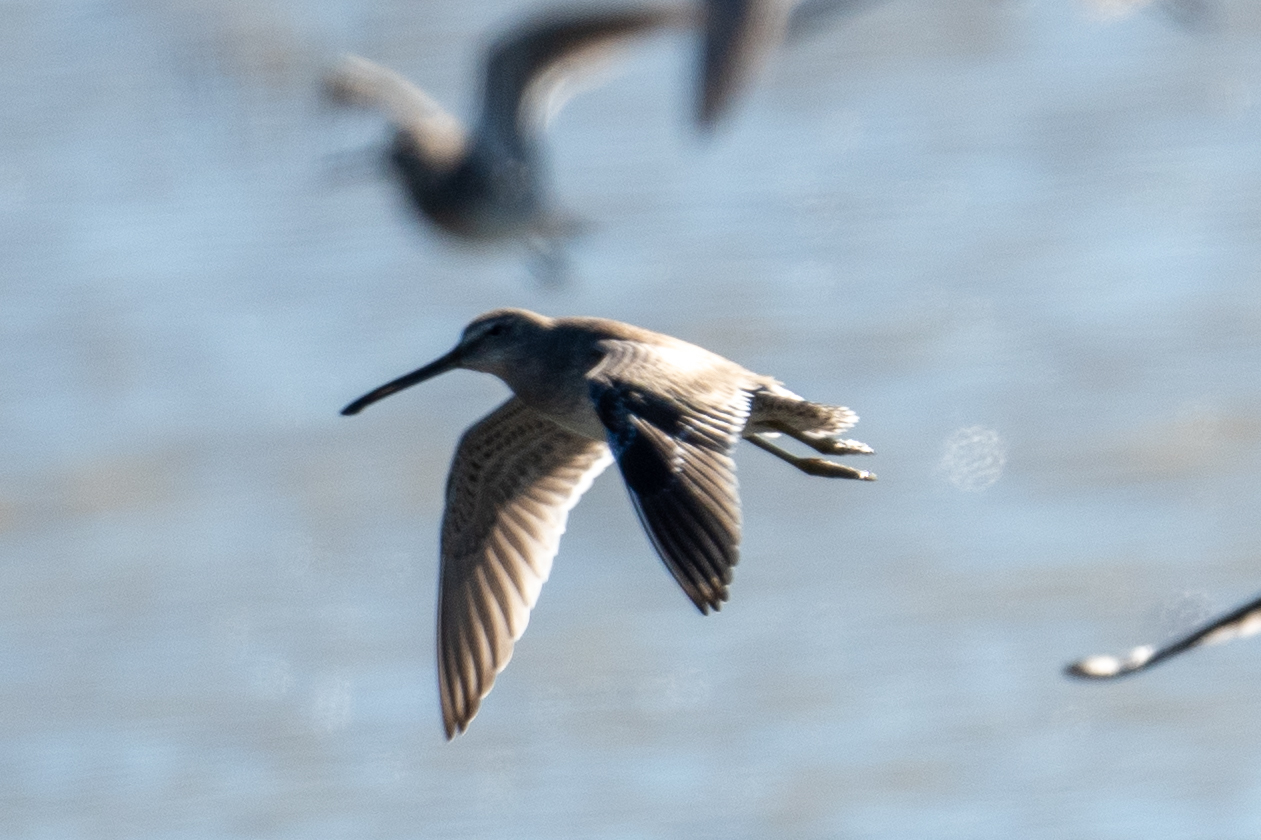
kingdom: Animalia
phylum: Chordata
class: Aves
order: Charadriiformes
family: Scolopacidae
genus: Limnodromus
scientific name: Limnodromus scolopaceus
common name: Long-billed dowitcher
